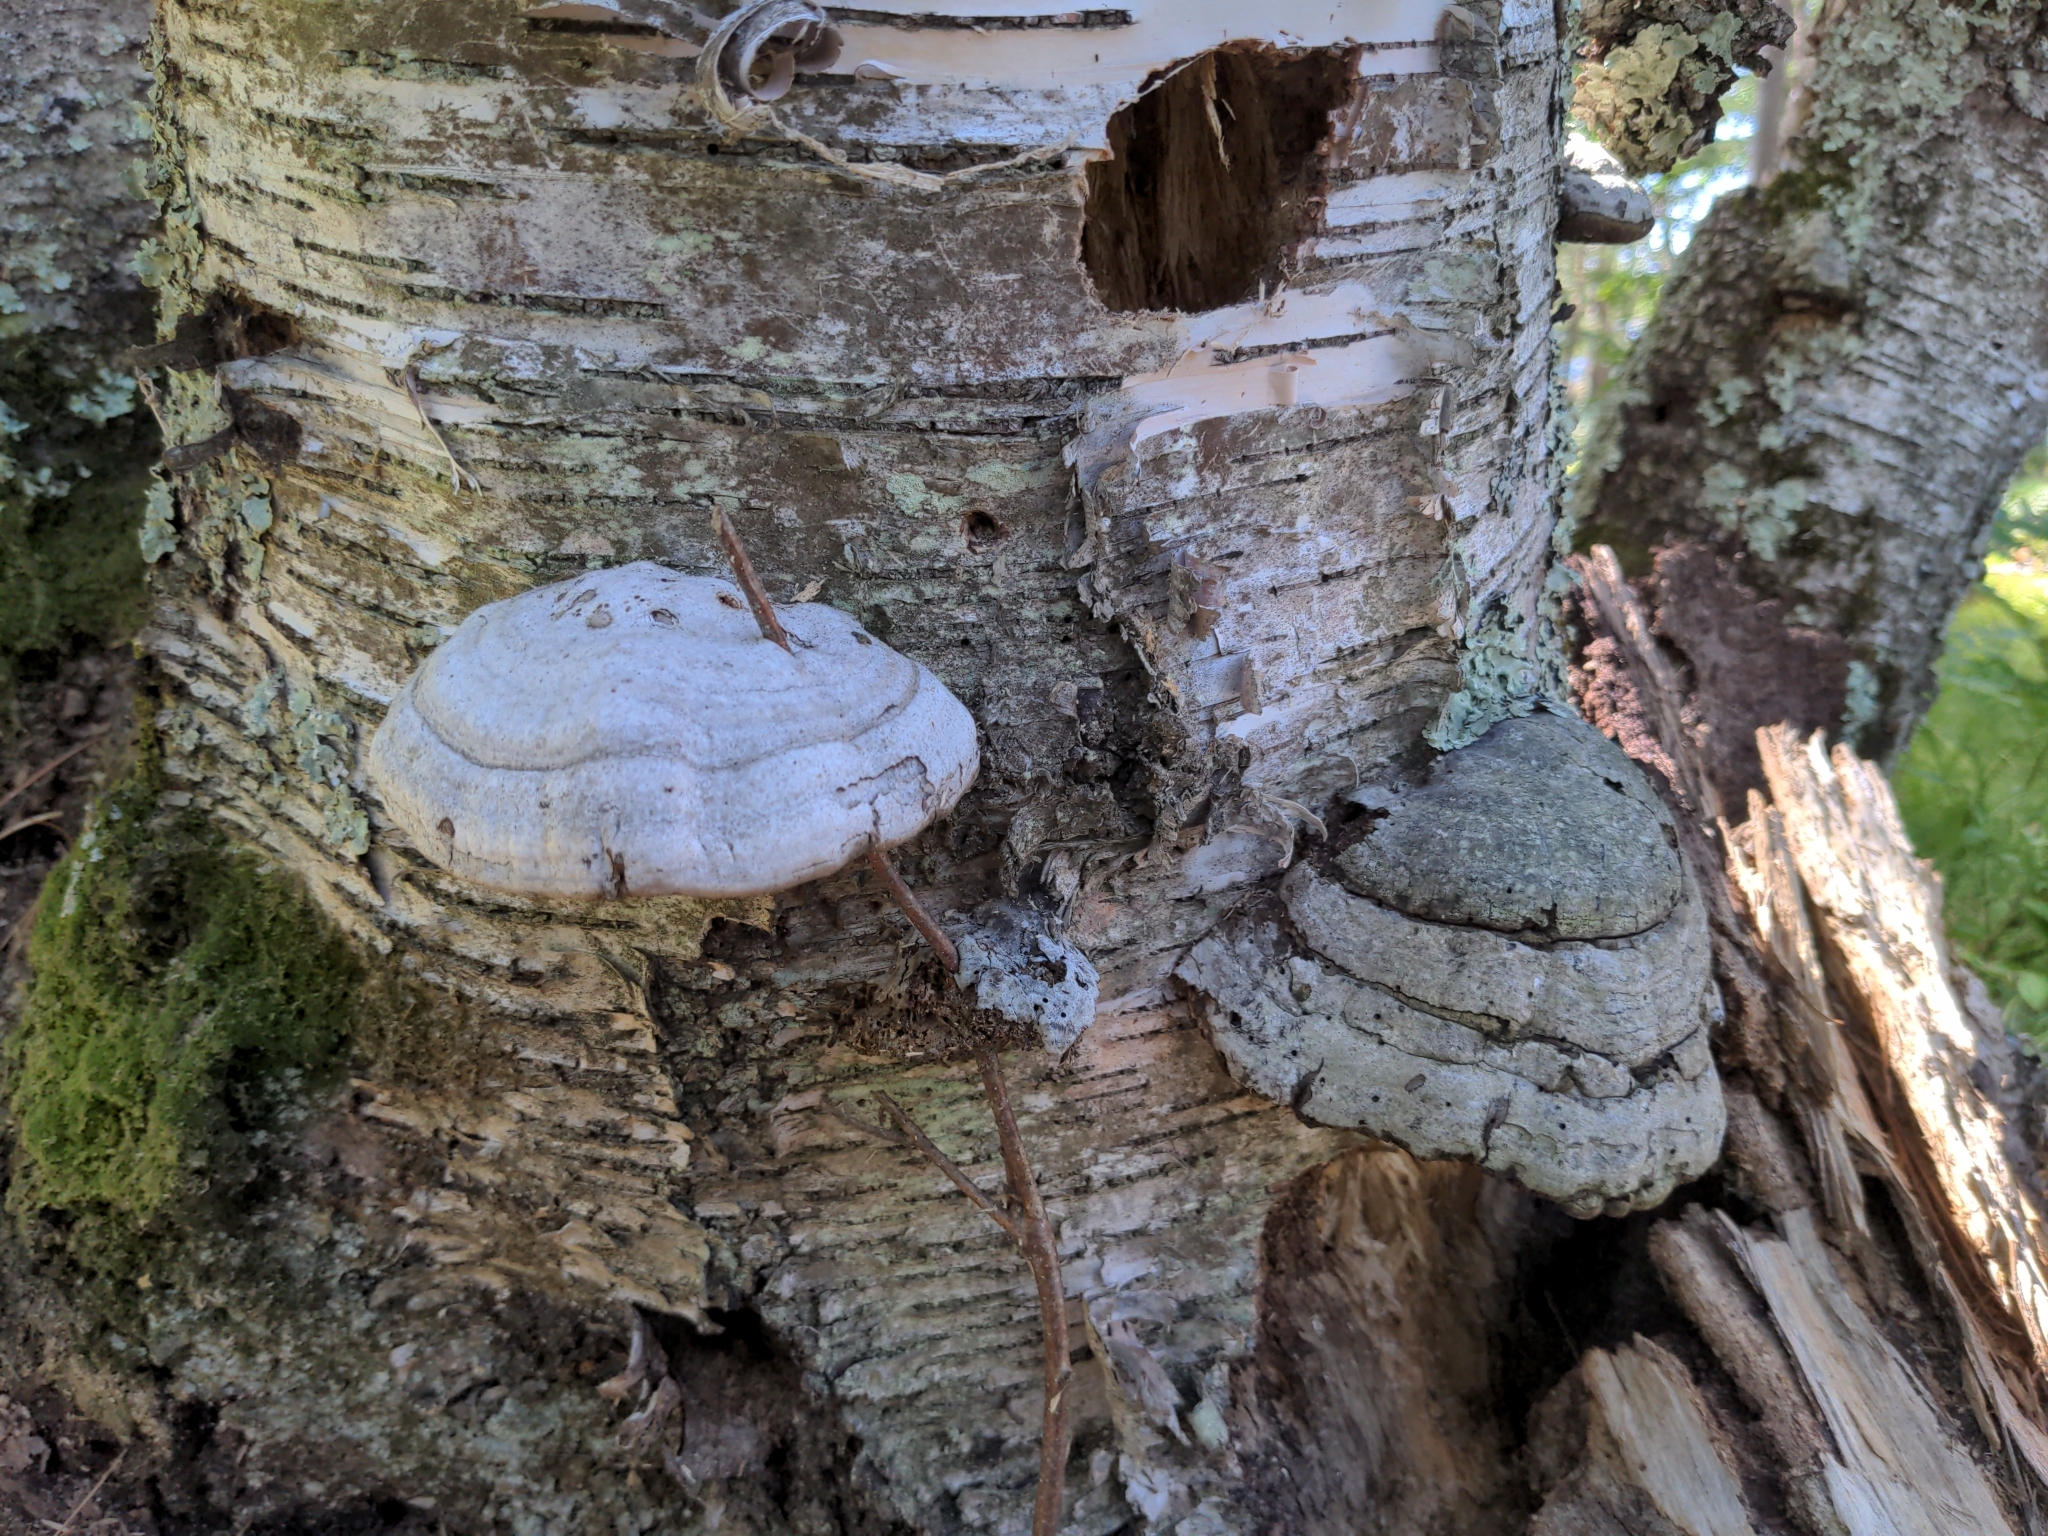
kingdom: Fungi
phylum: Basidiomycota
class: Agaricomycetes
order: Polyporales
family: Polyporaceae
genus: Fomes
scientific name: Fomes fomentarius
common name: Hoof fungus
